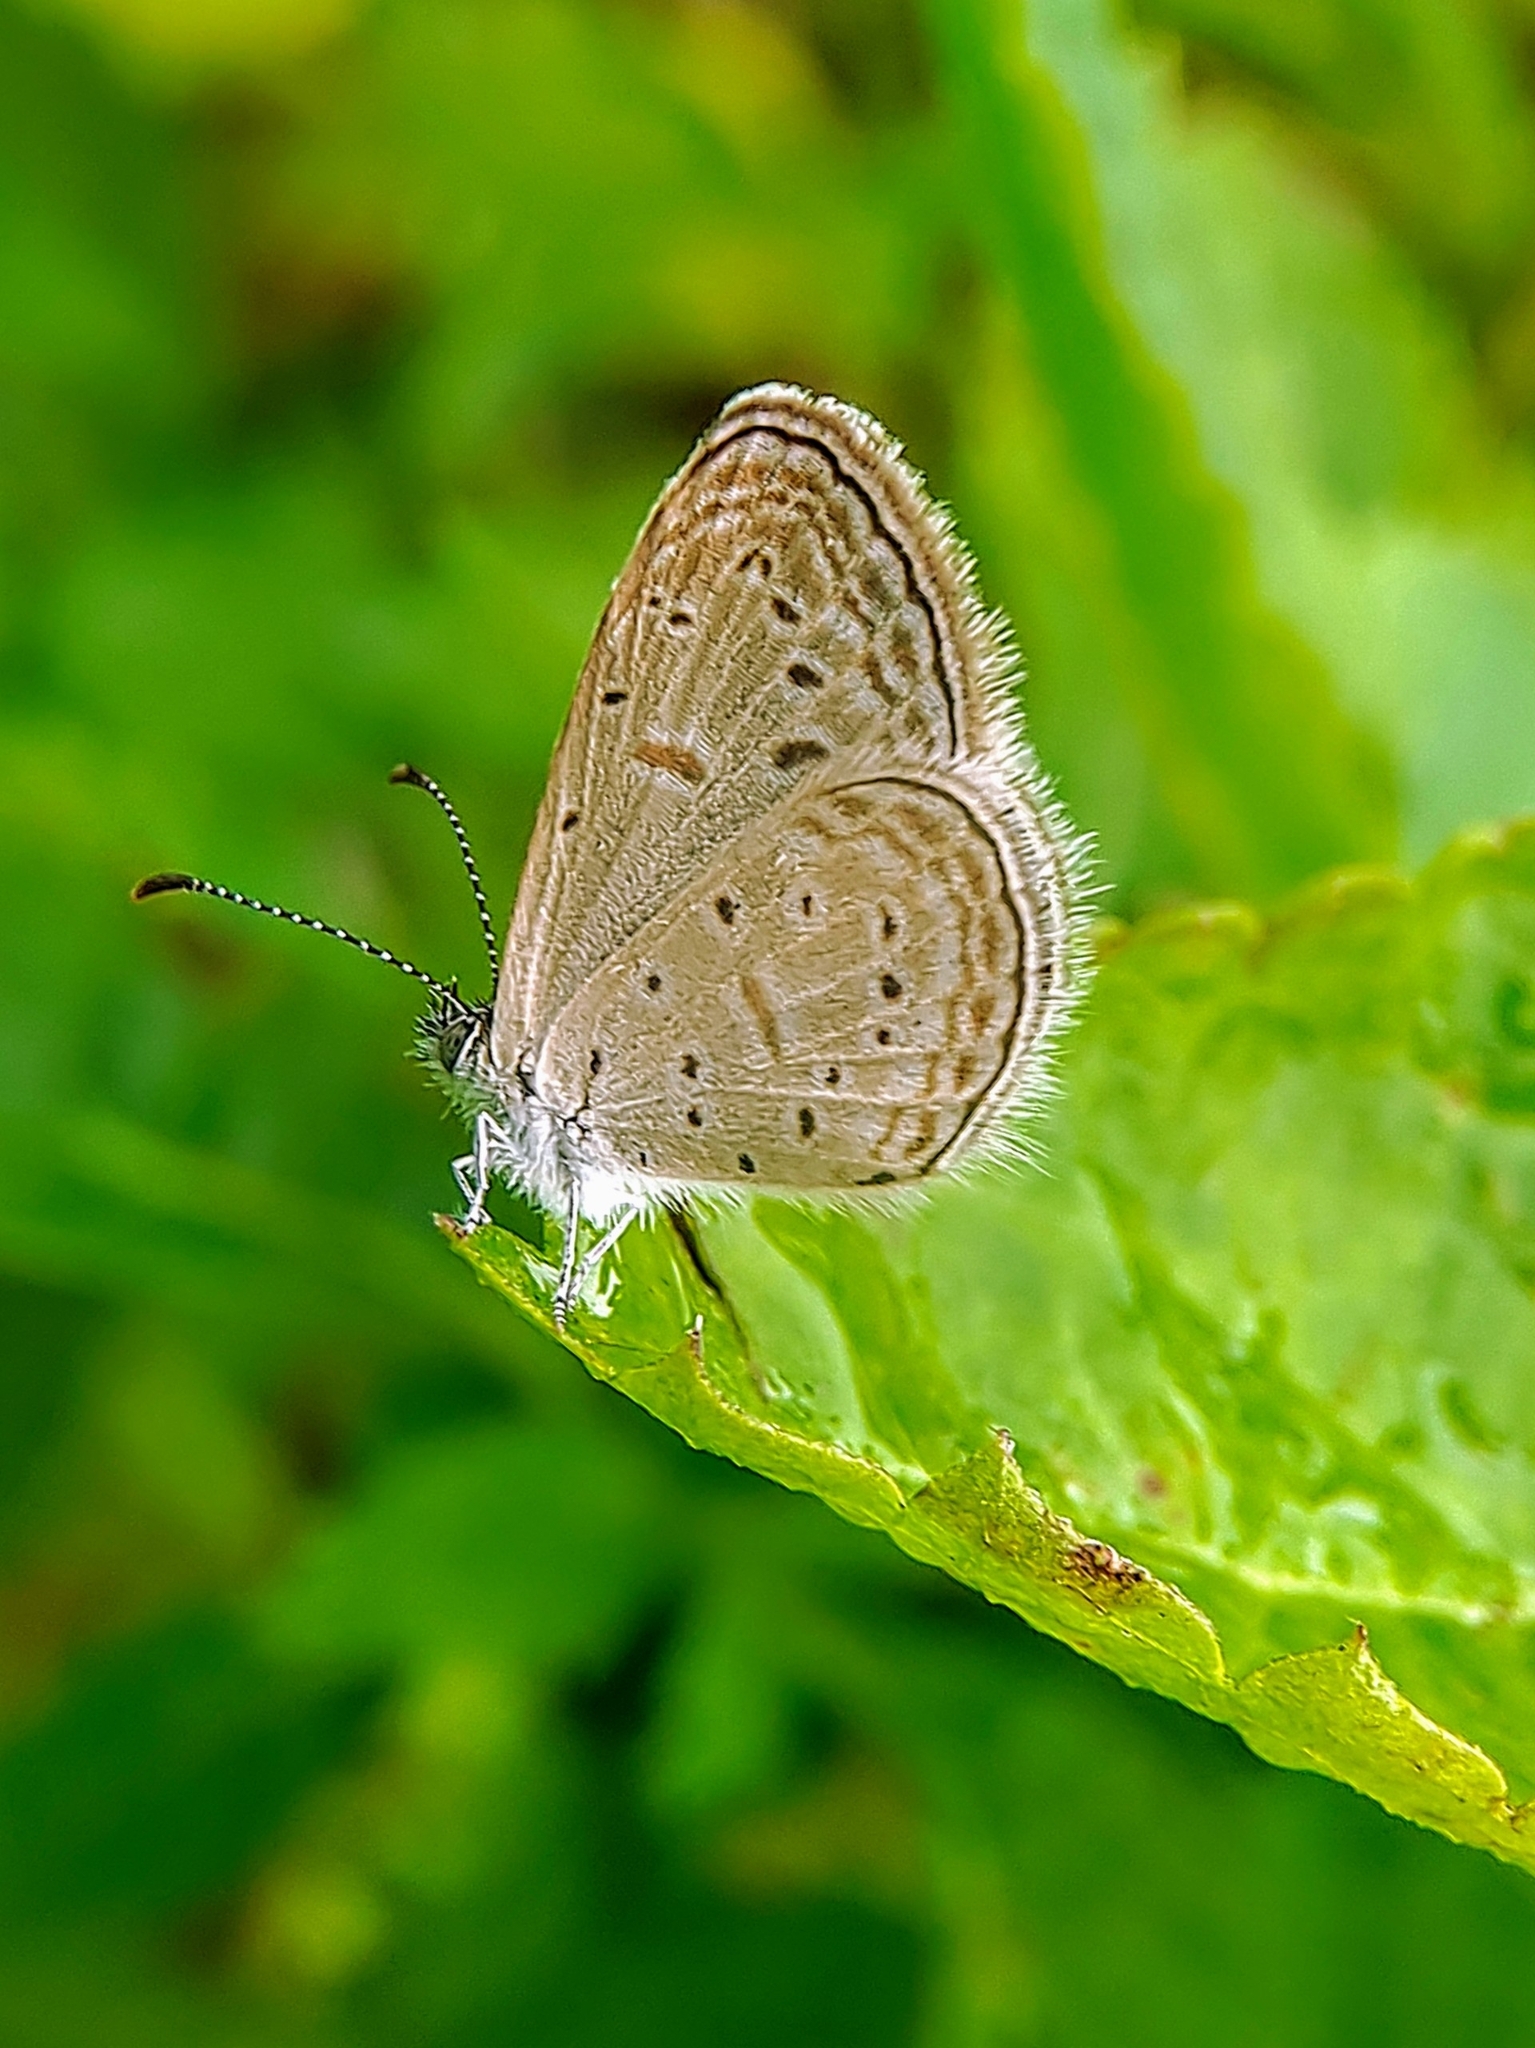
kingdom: Animalia
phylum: Arthropoda
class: Insecta
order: Lepidoptera
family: Lycaenidae
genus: Zizula
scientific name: Zizula hylax
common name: Gaika blue
